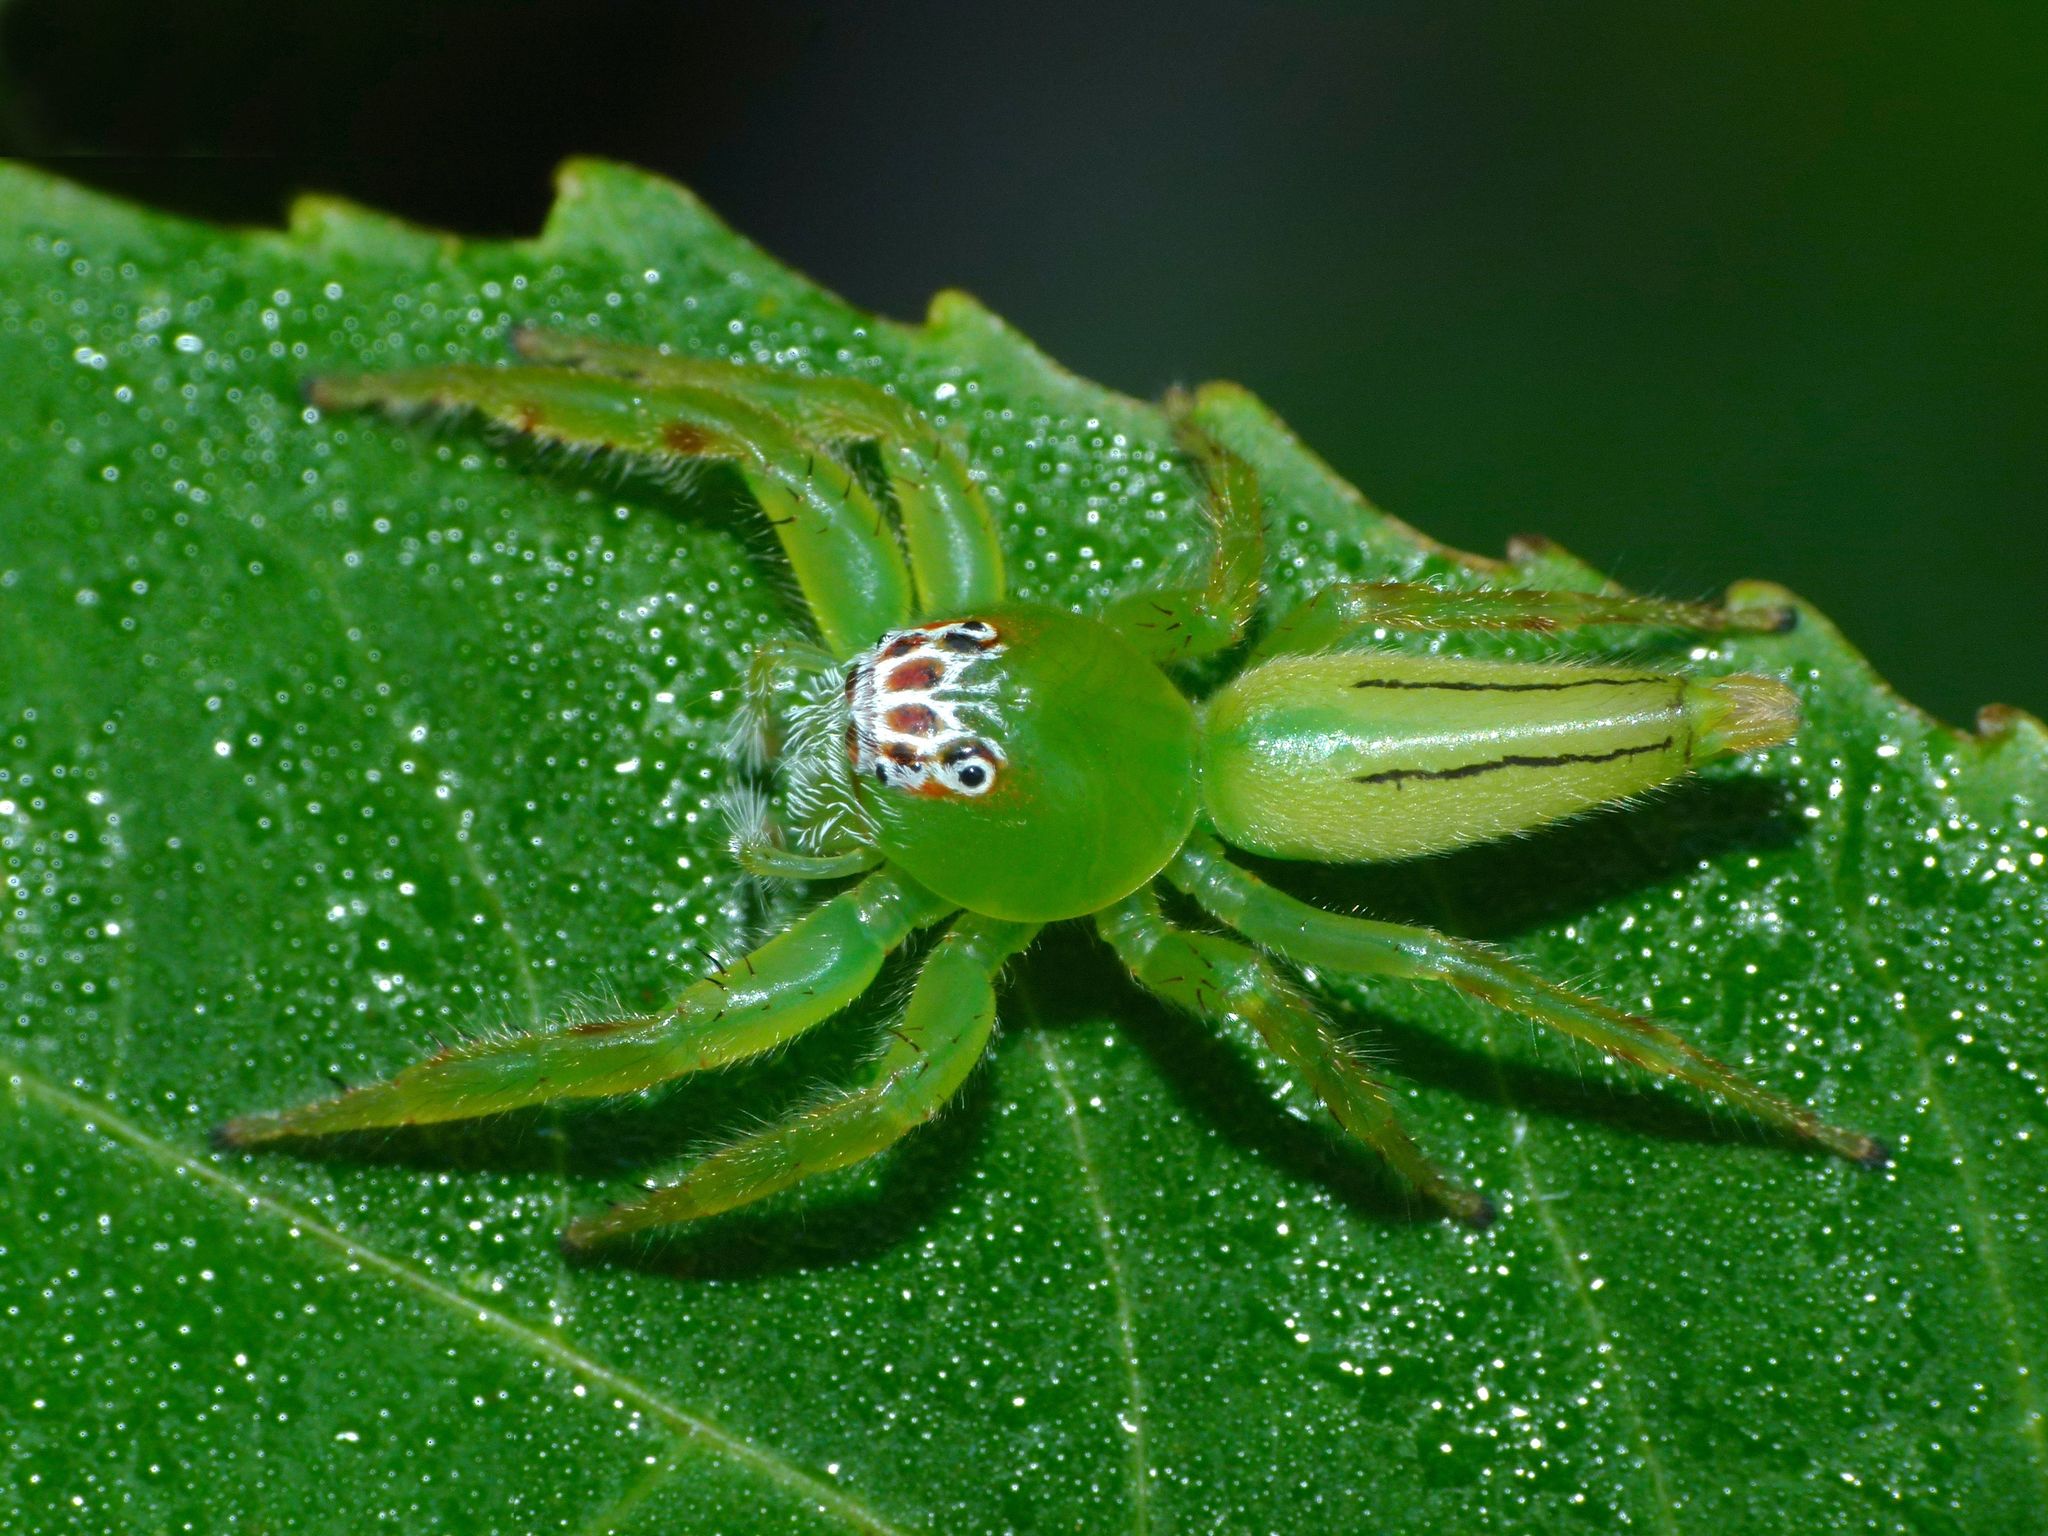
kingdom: Animalia
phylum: Arthropoda
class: Arachnida
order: Araneae
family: Salticidae
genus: Mopsus
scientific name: Mopsus mormon
